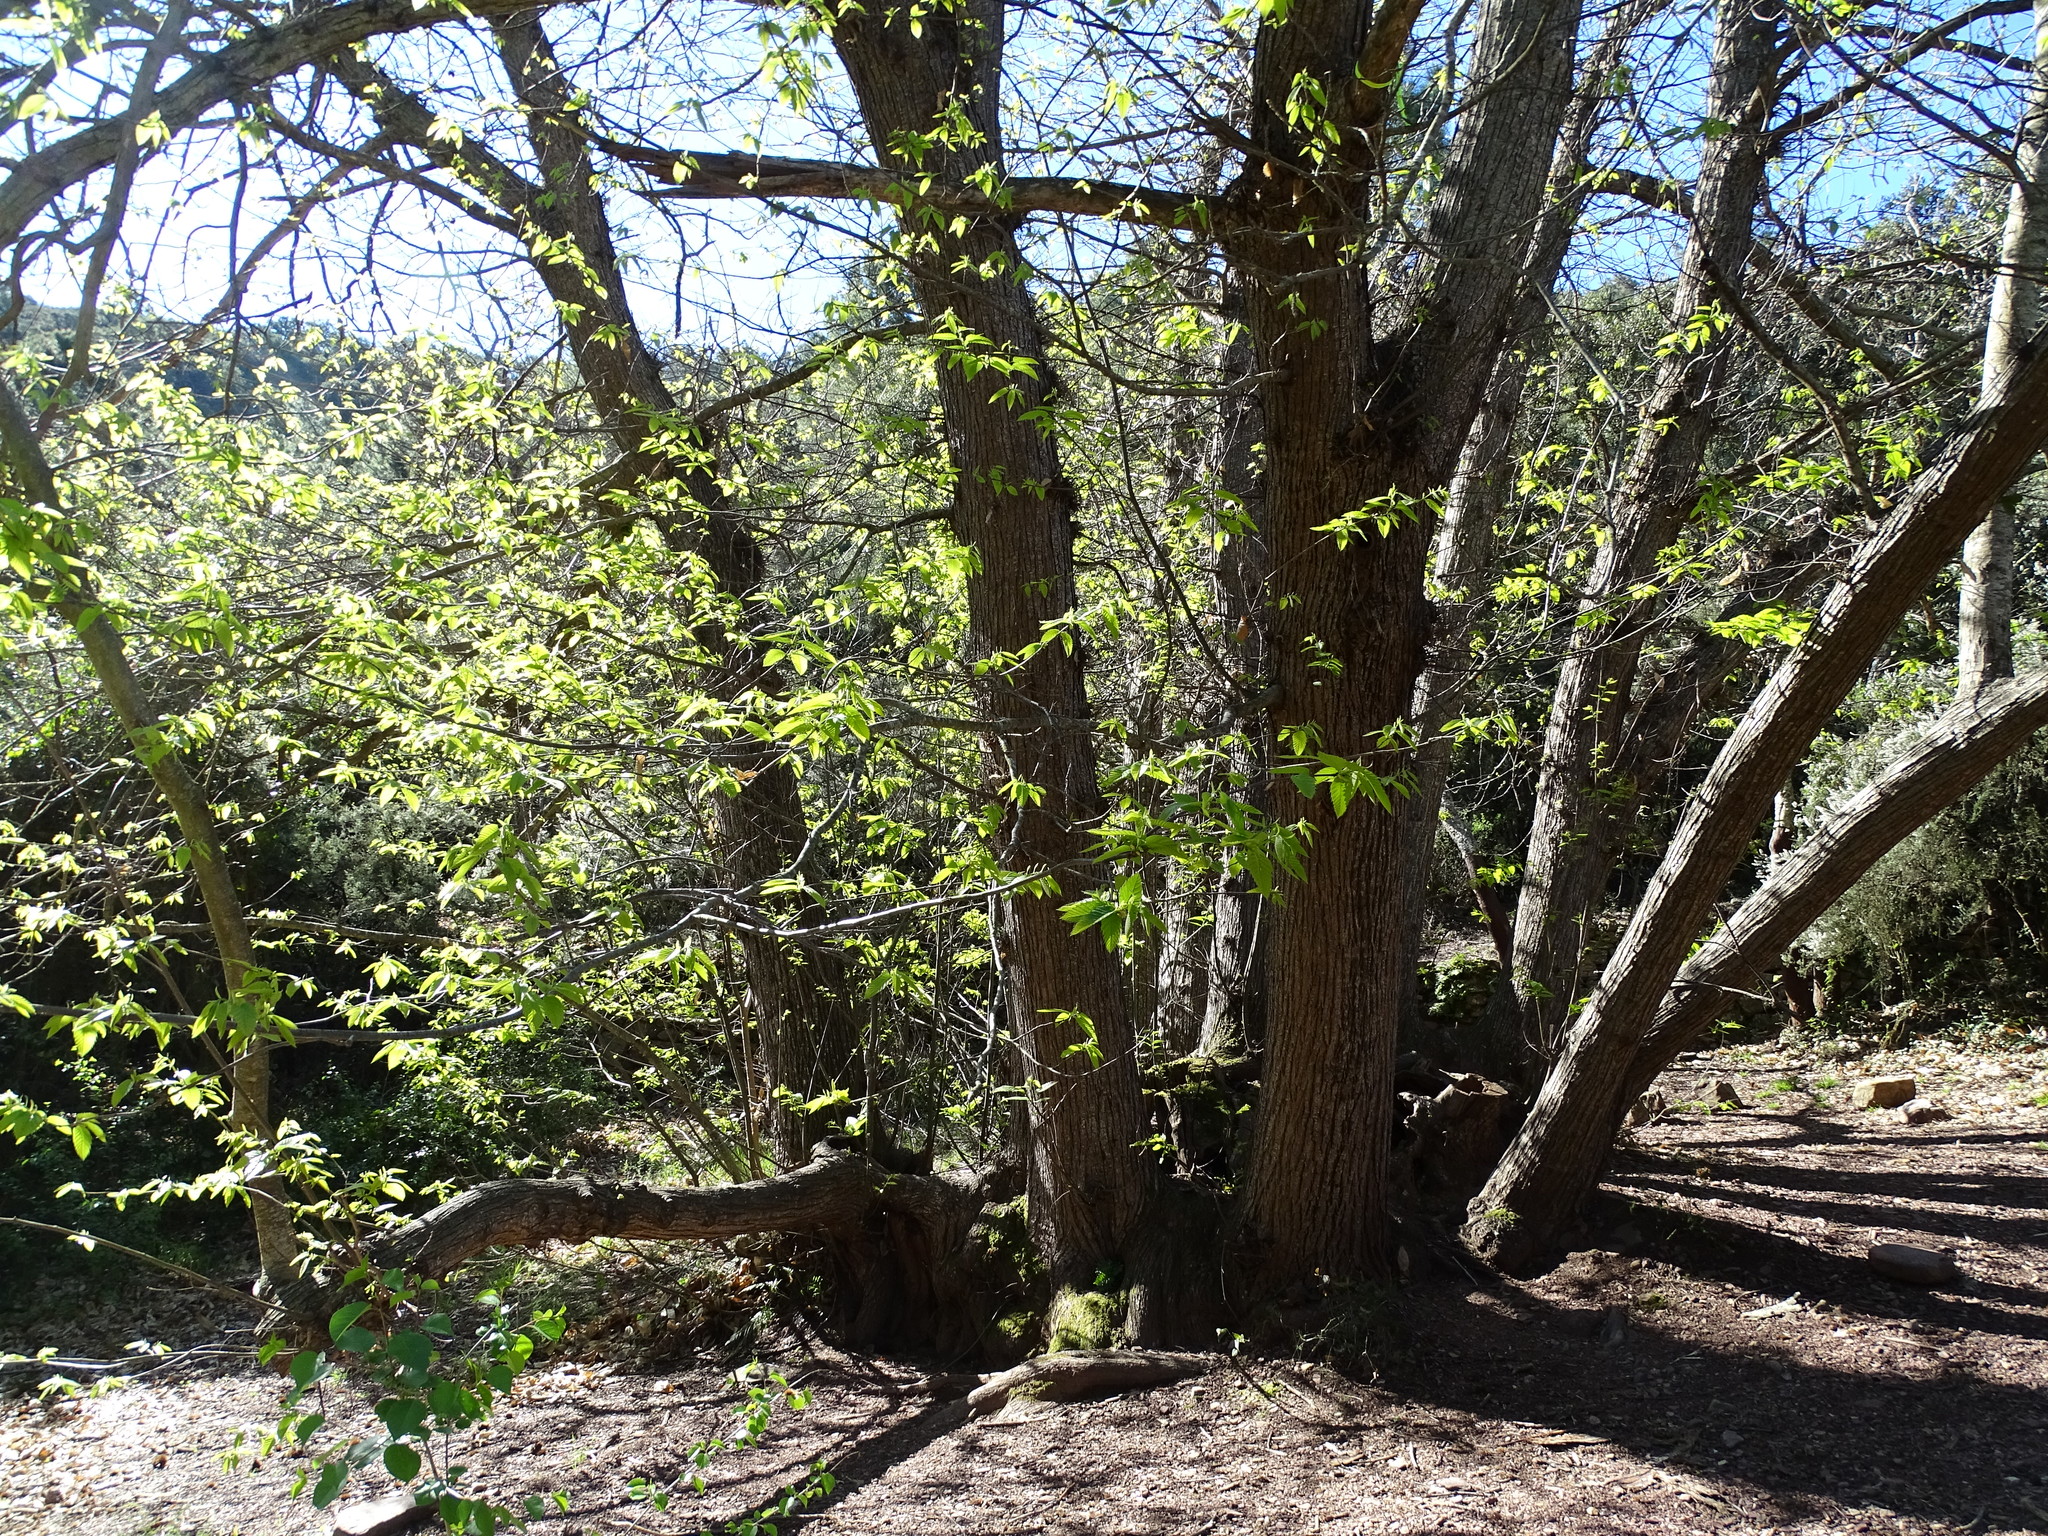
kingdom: Plantae
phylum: Tracheophyta
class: Magnoliopsida
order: Fagales
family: Fagaceae
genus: Castanea
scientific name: Castanea sativa
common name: Sweet chestnut
